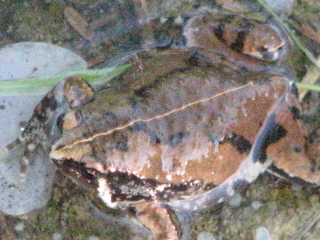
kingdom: Animalia
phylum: Chordata
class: Amphibia
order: Anura
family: Microhylidae
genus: Hypopachus
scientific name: Hypopachus variolosus
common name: Sheep frog
